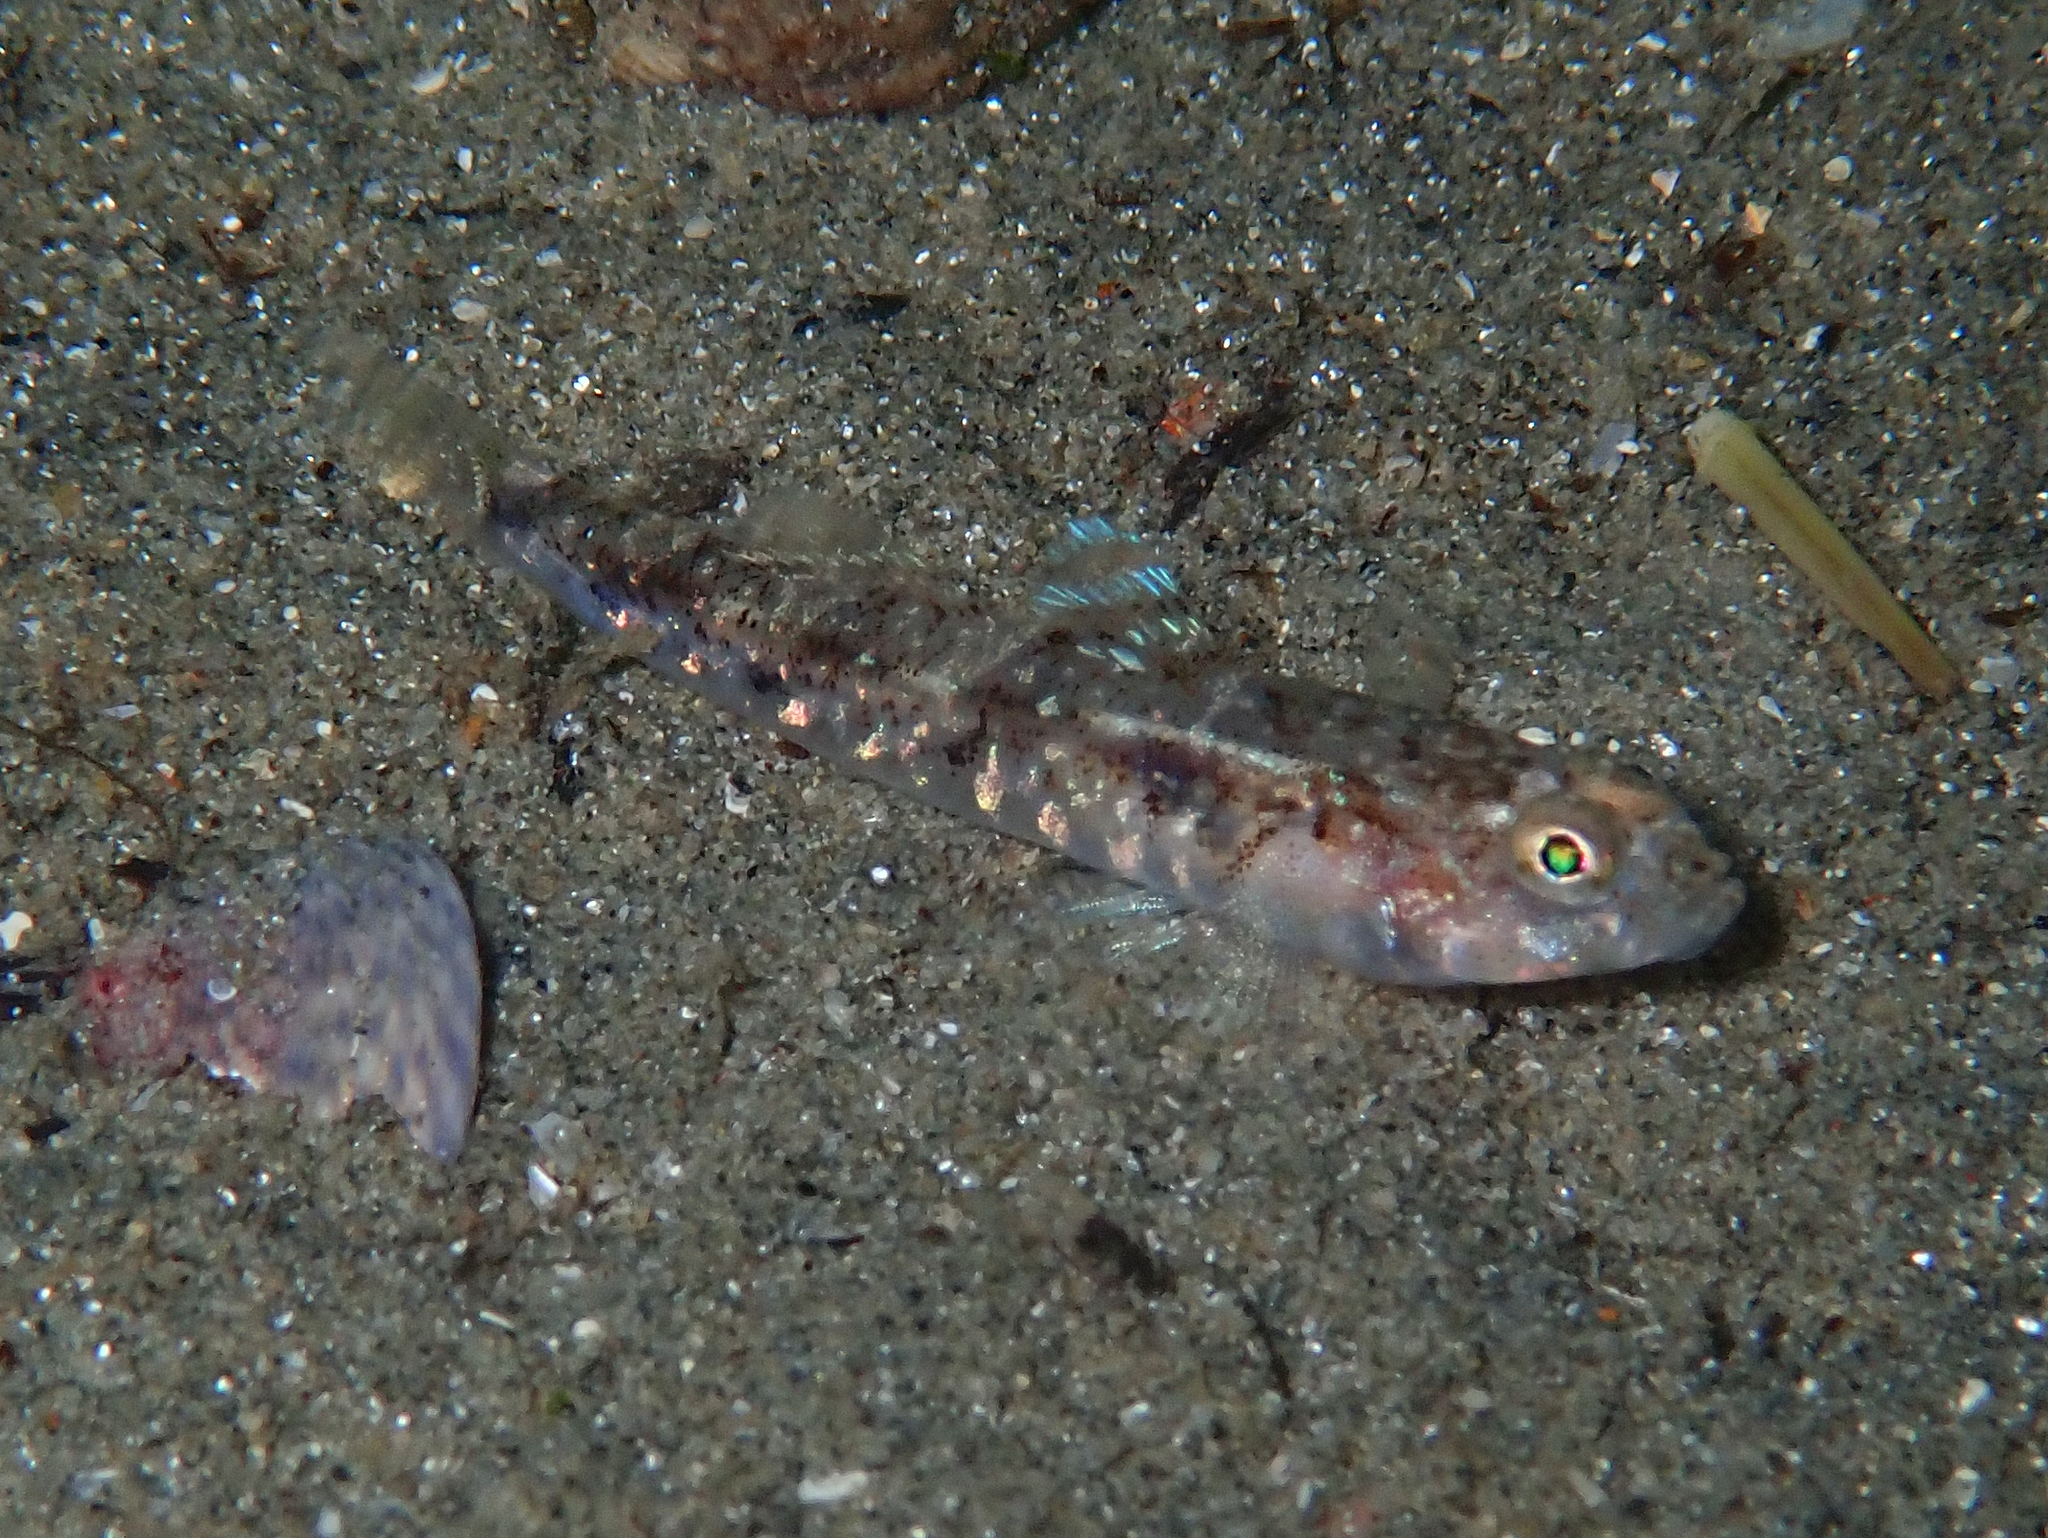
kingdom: Animalia
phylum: Chordata
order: Perciformes
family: Gobiidae
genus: Pomatoschistus
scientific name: Pomatoschistus pictus
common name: Painted goby
